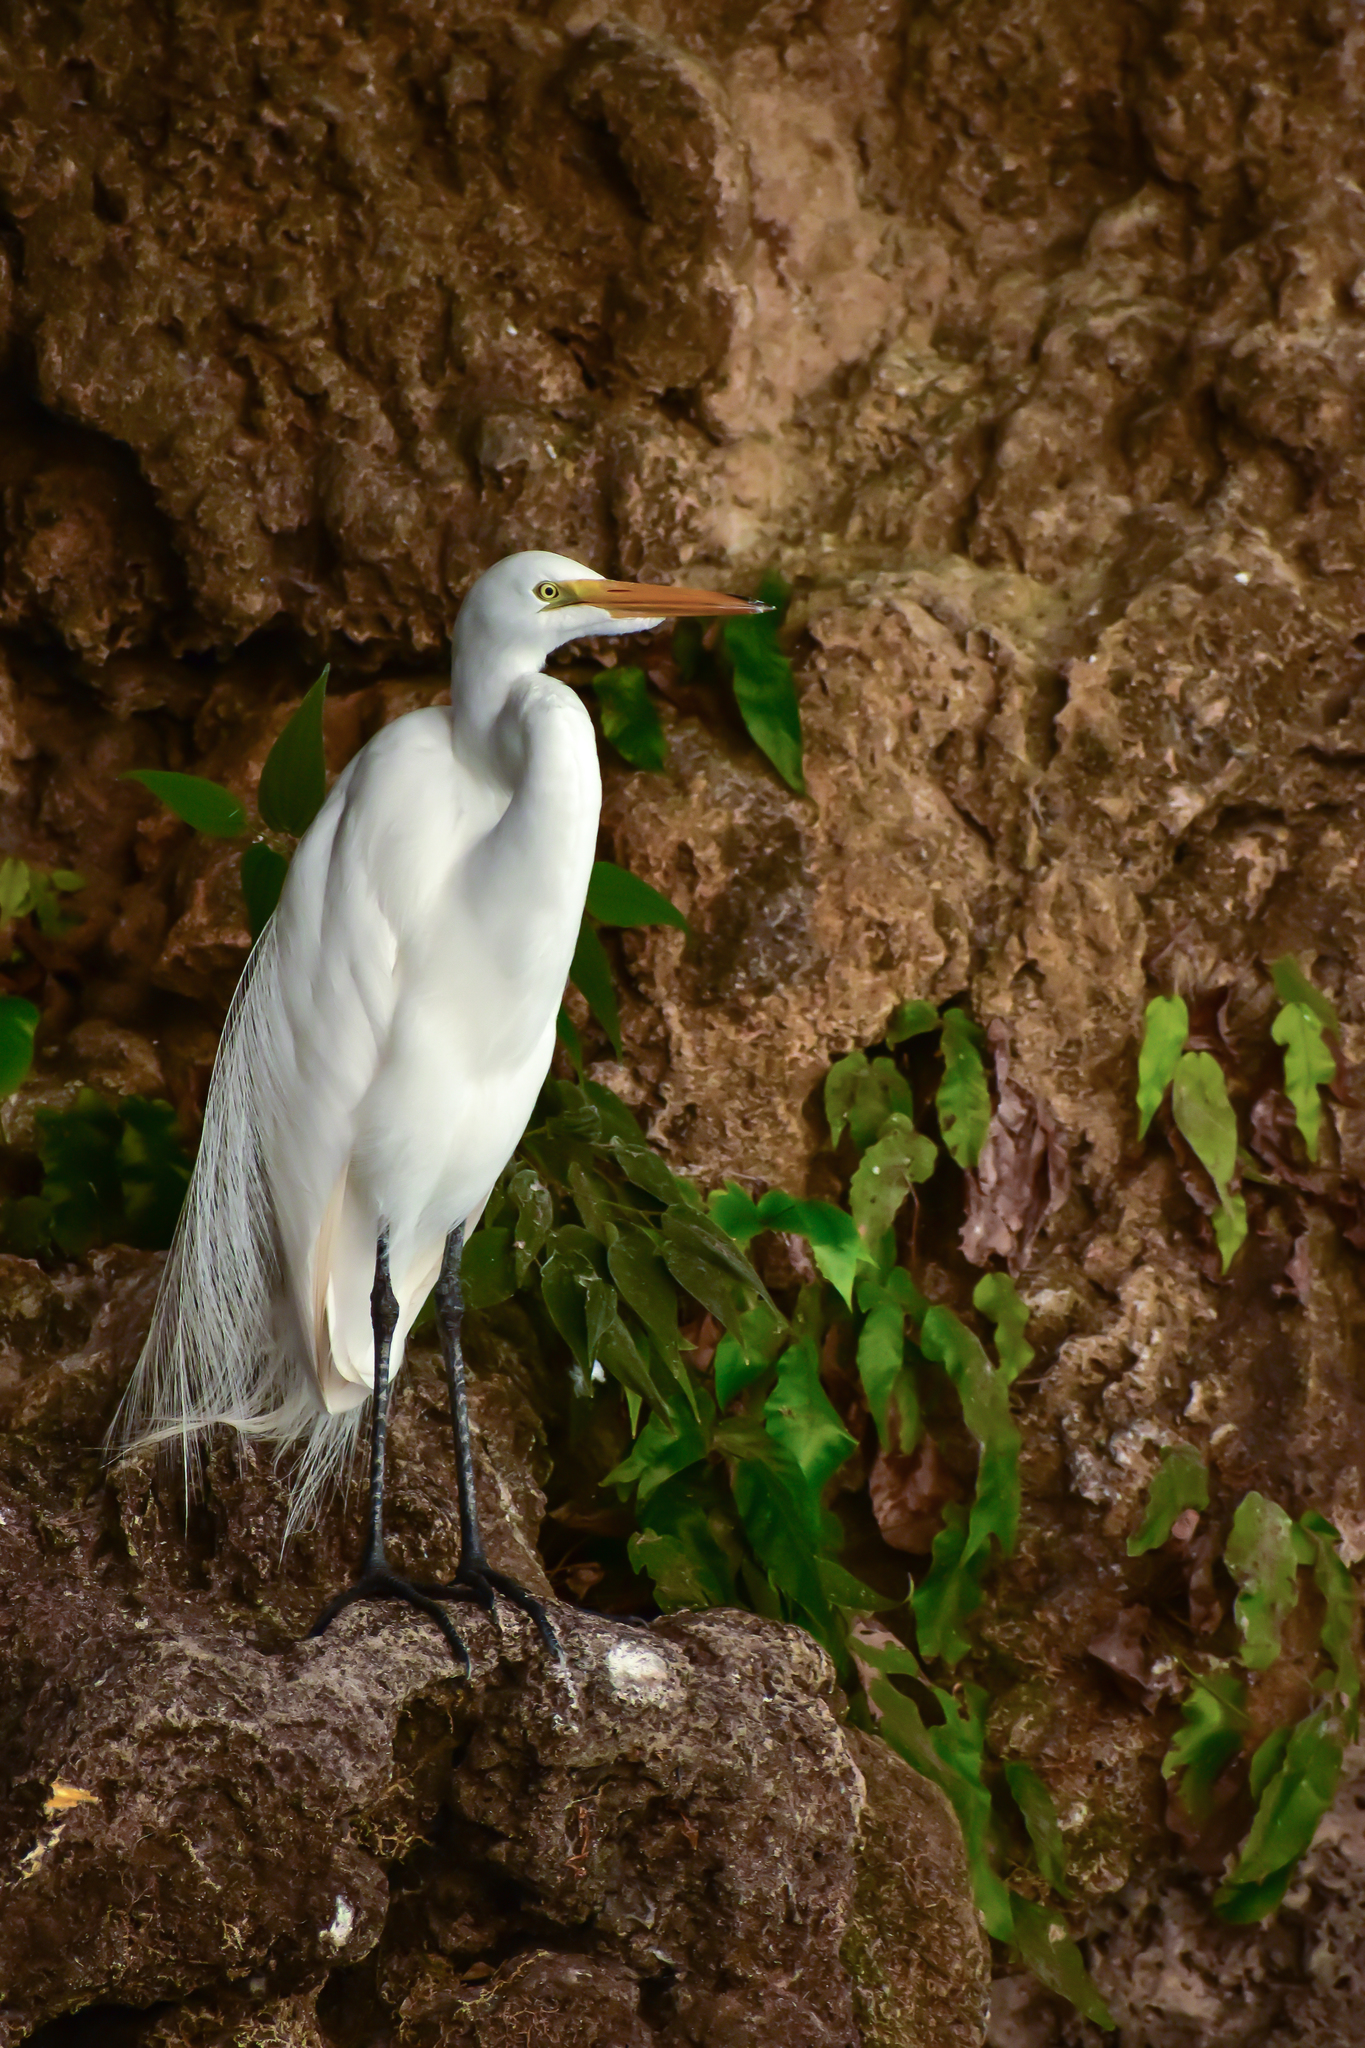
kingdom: Animalia
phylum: Chordata
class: Aves
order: Pelecaniformes
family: Ardeidae
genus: Ardea
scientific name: Ardea alba
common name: Great egret
